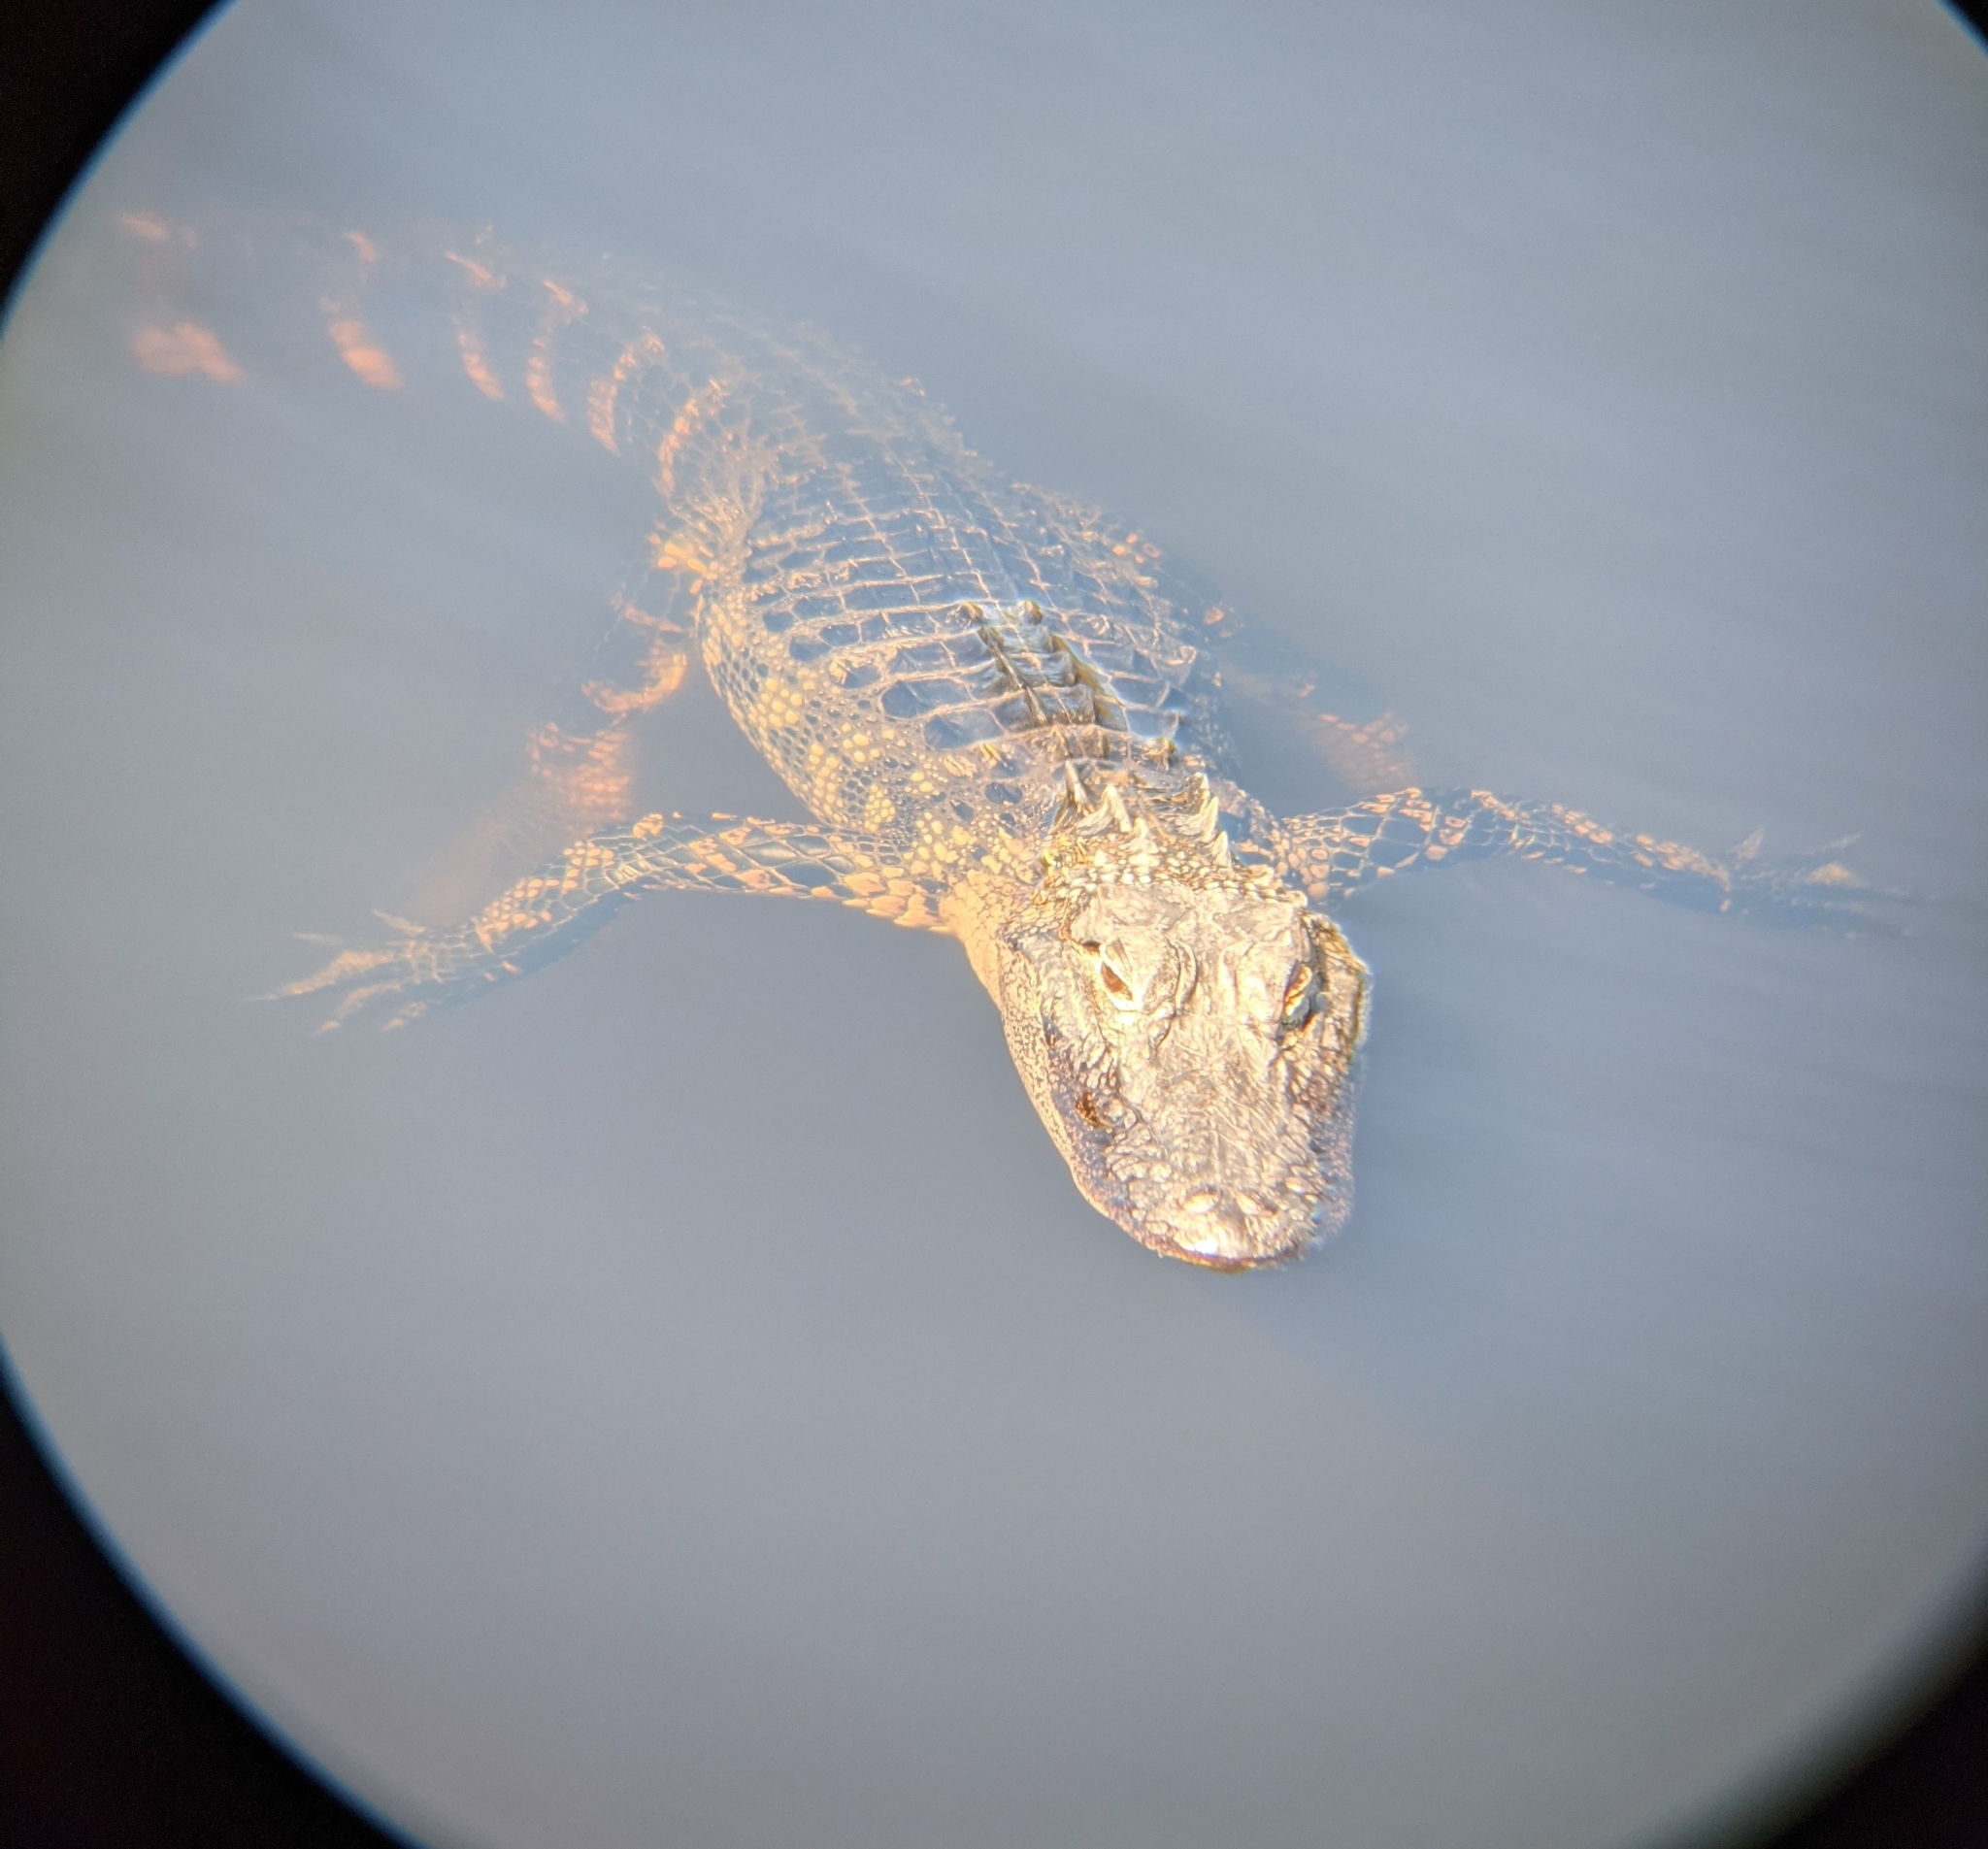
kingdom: Animalia
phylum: Chordata
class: Crocodylia
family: Alligatoridae
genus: Alligator
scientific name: Alligator mississippiensis
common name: American alligator
